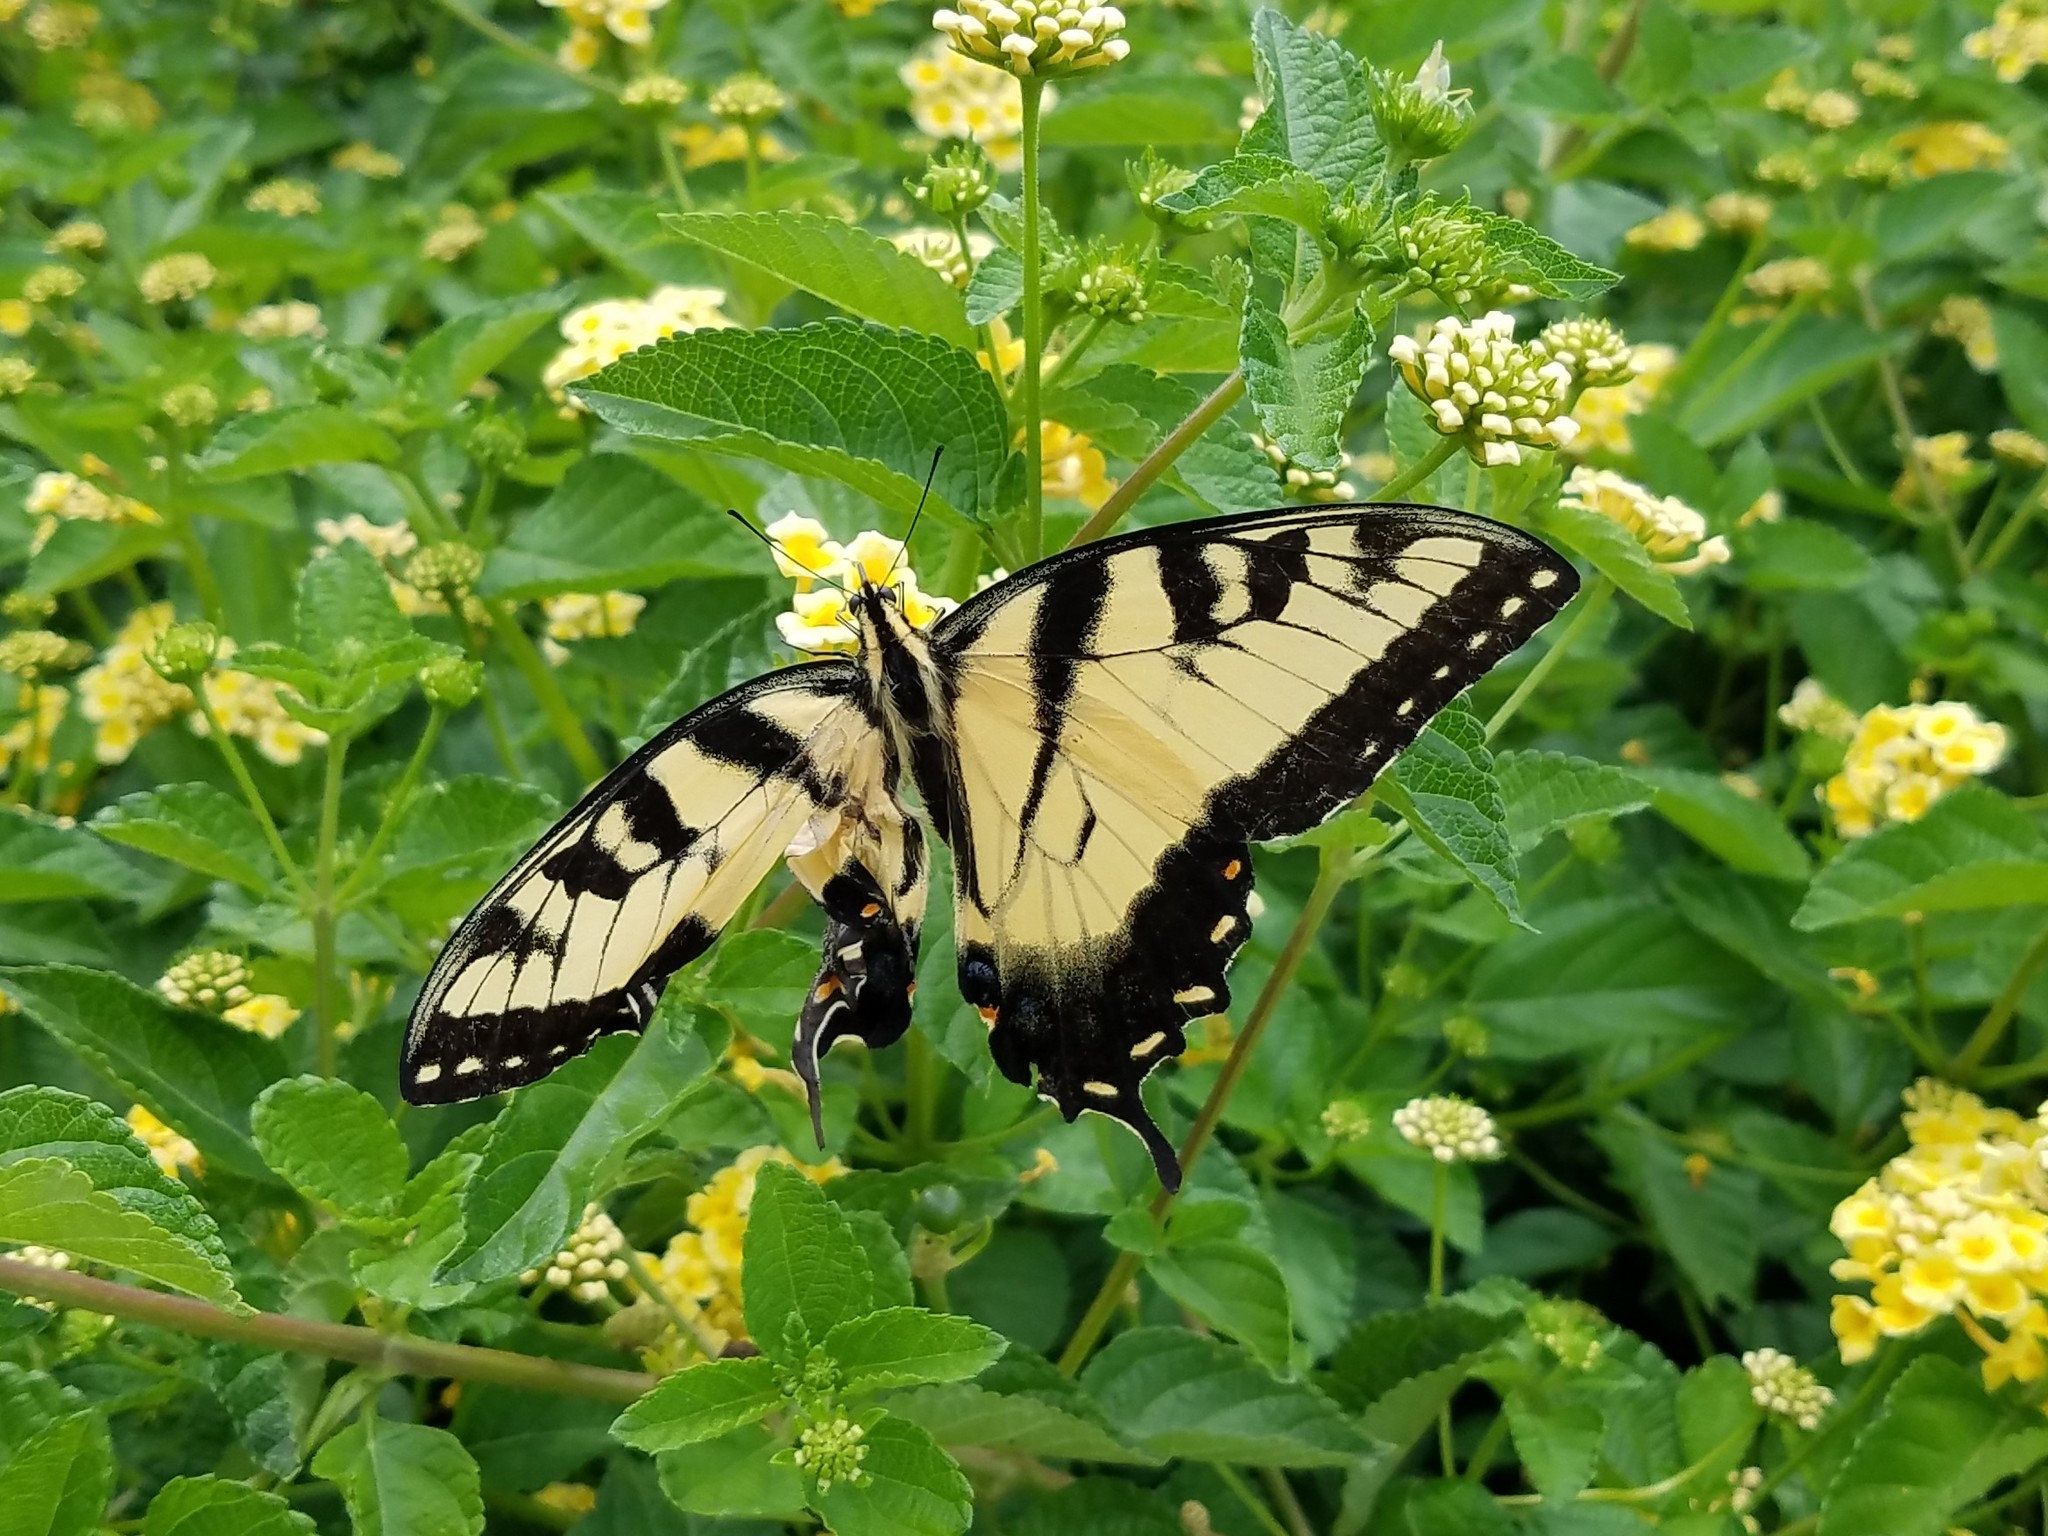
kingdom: Animalia
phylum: Arthropoda
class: Insecta
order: Lepidoptera
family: Papilionidae
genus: Papilio
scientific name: Papilio glaucus
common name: Tiger swallowtail
